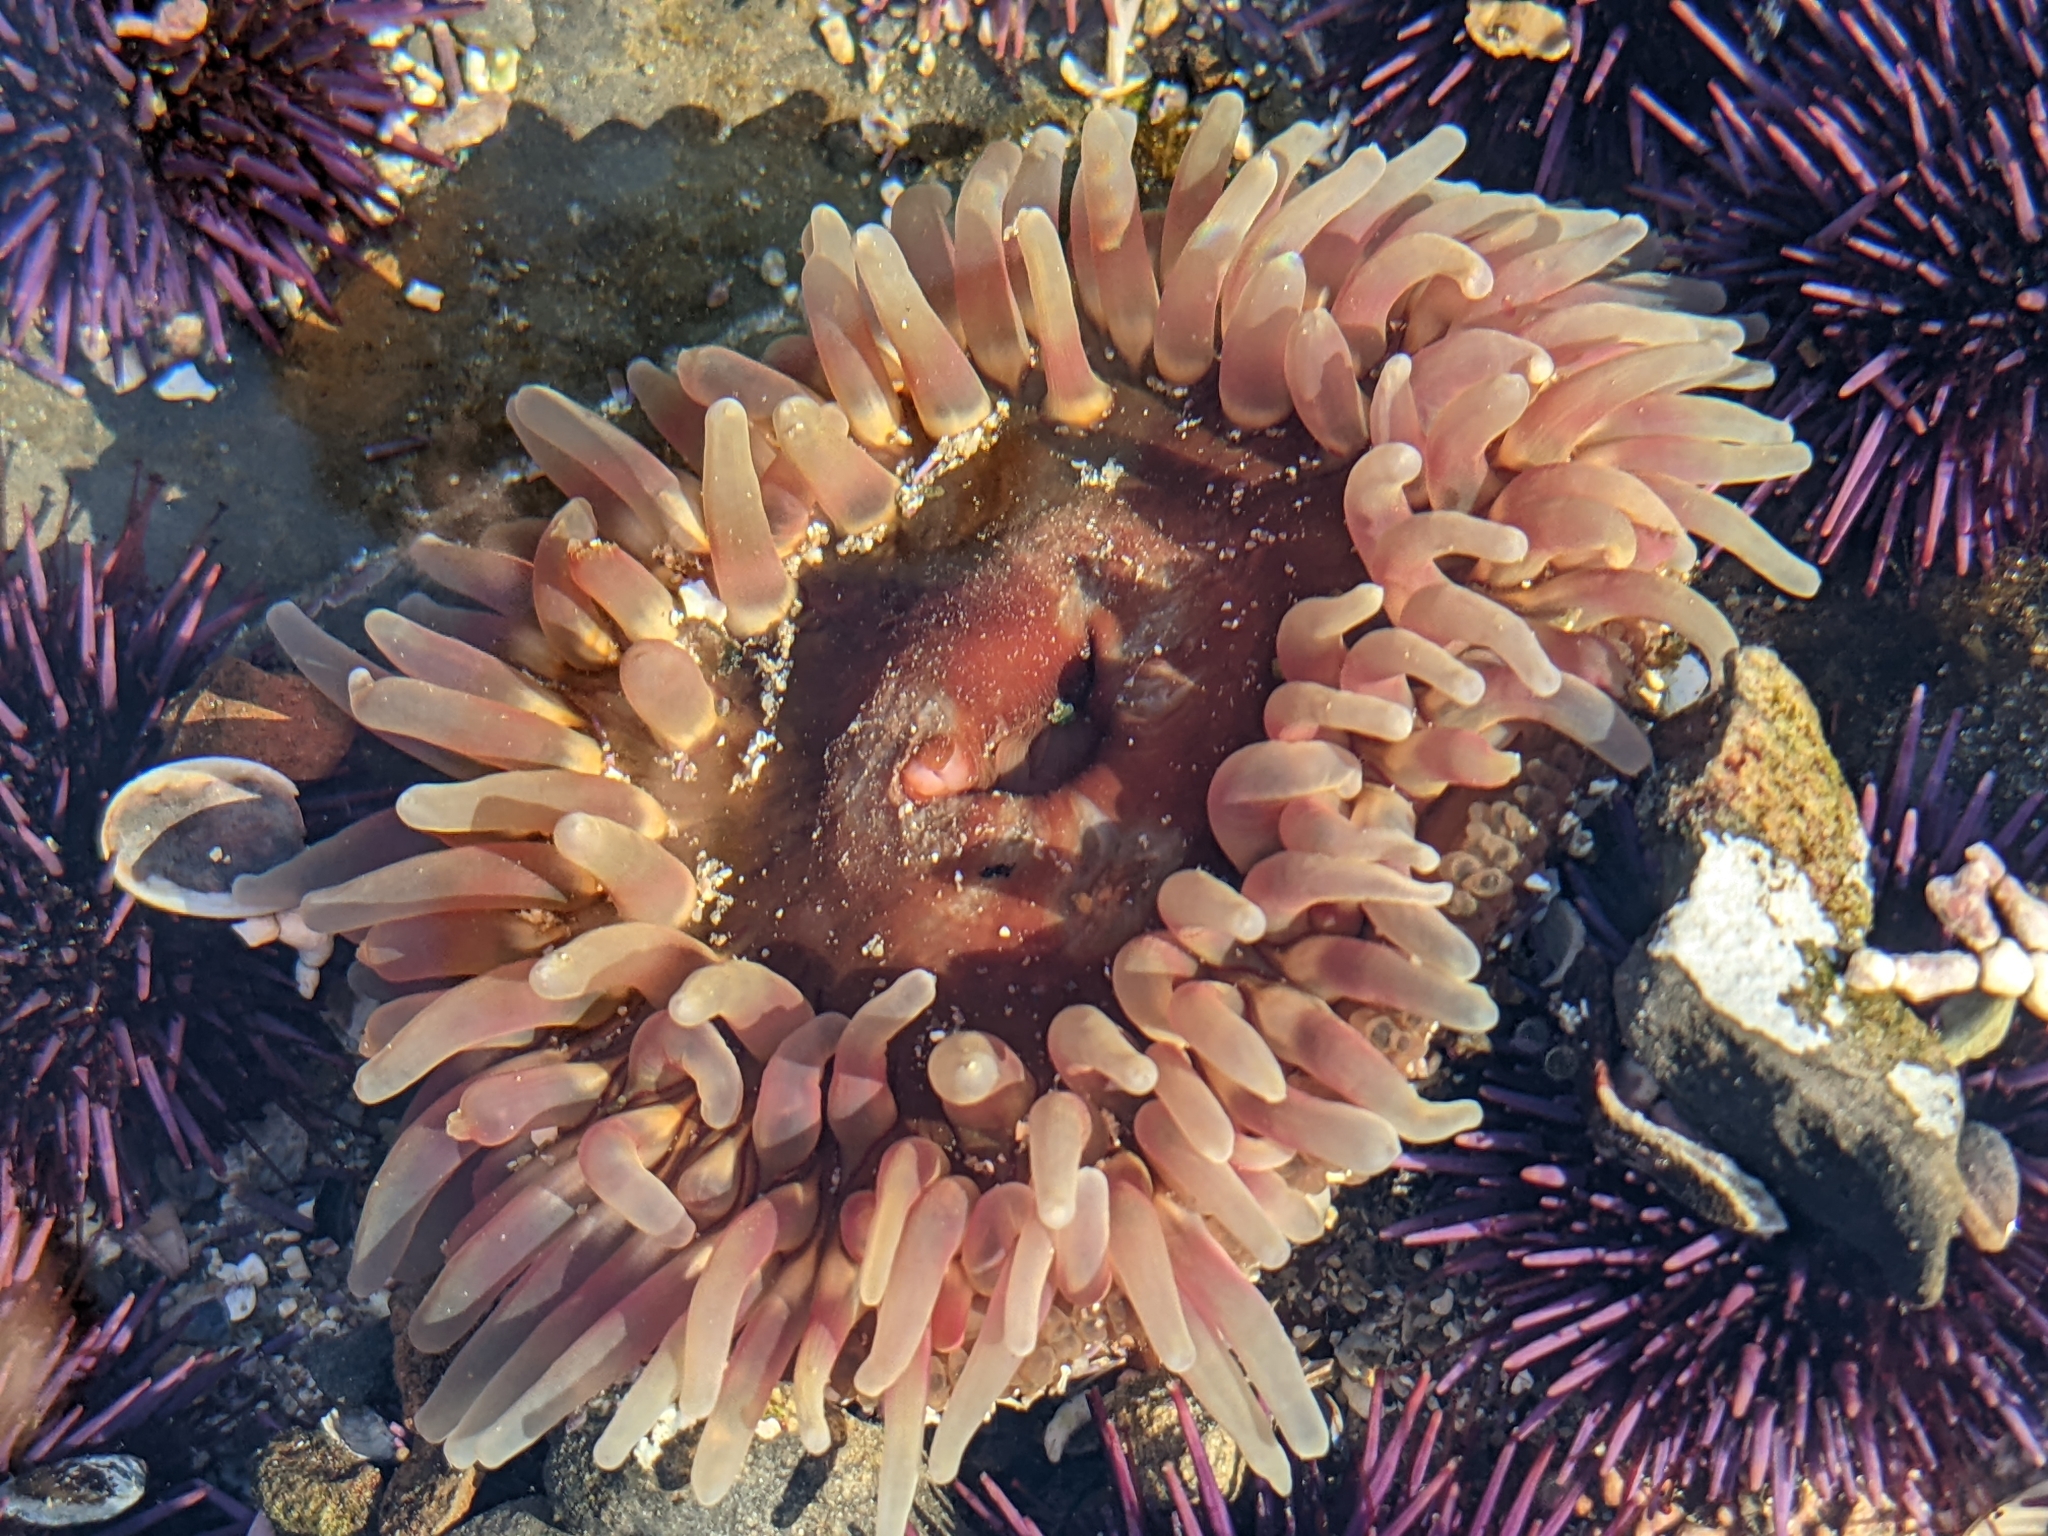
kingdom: Animalia
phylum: Cnidaria
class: Anthozoa
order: Actiniaria
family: Actiniidae
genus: Urticina
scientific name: Urticina clandestina
